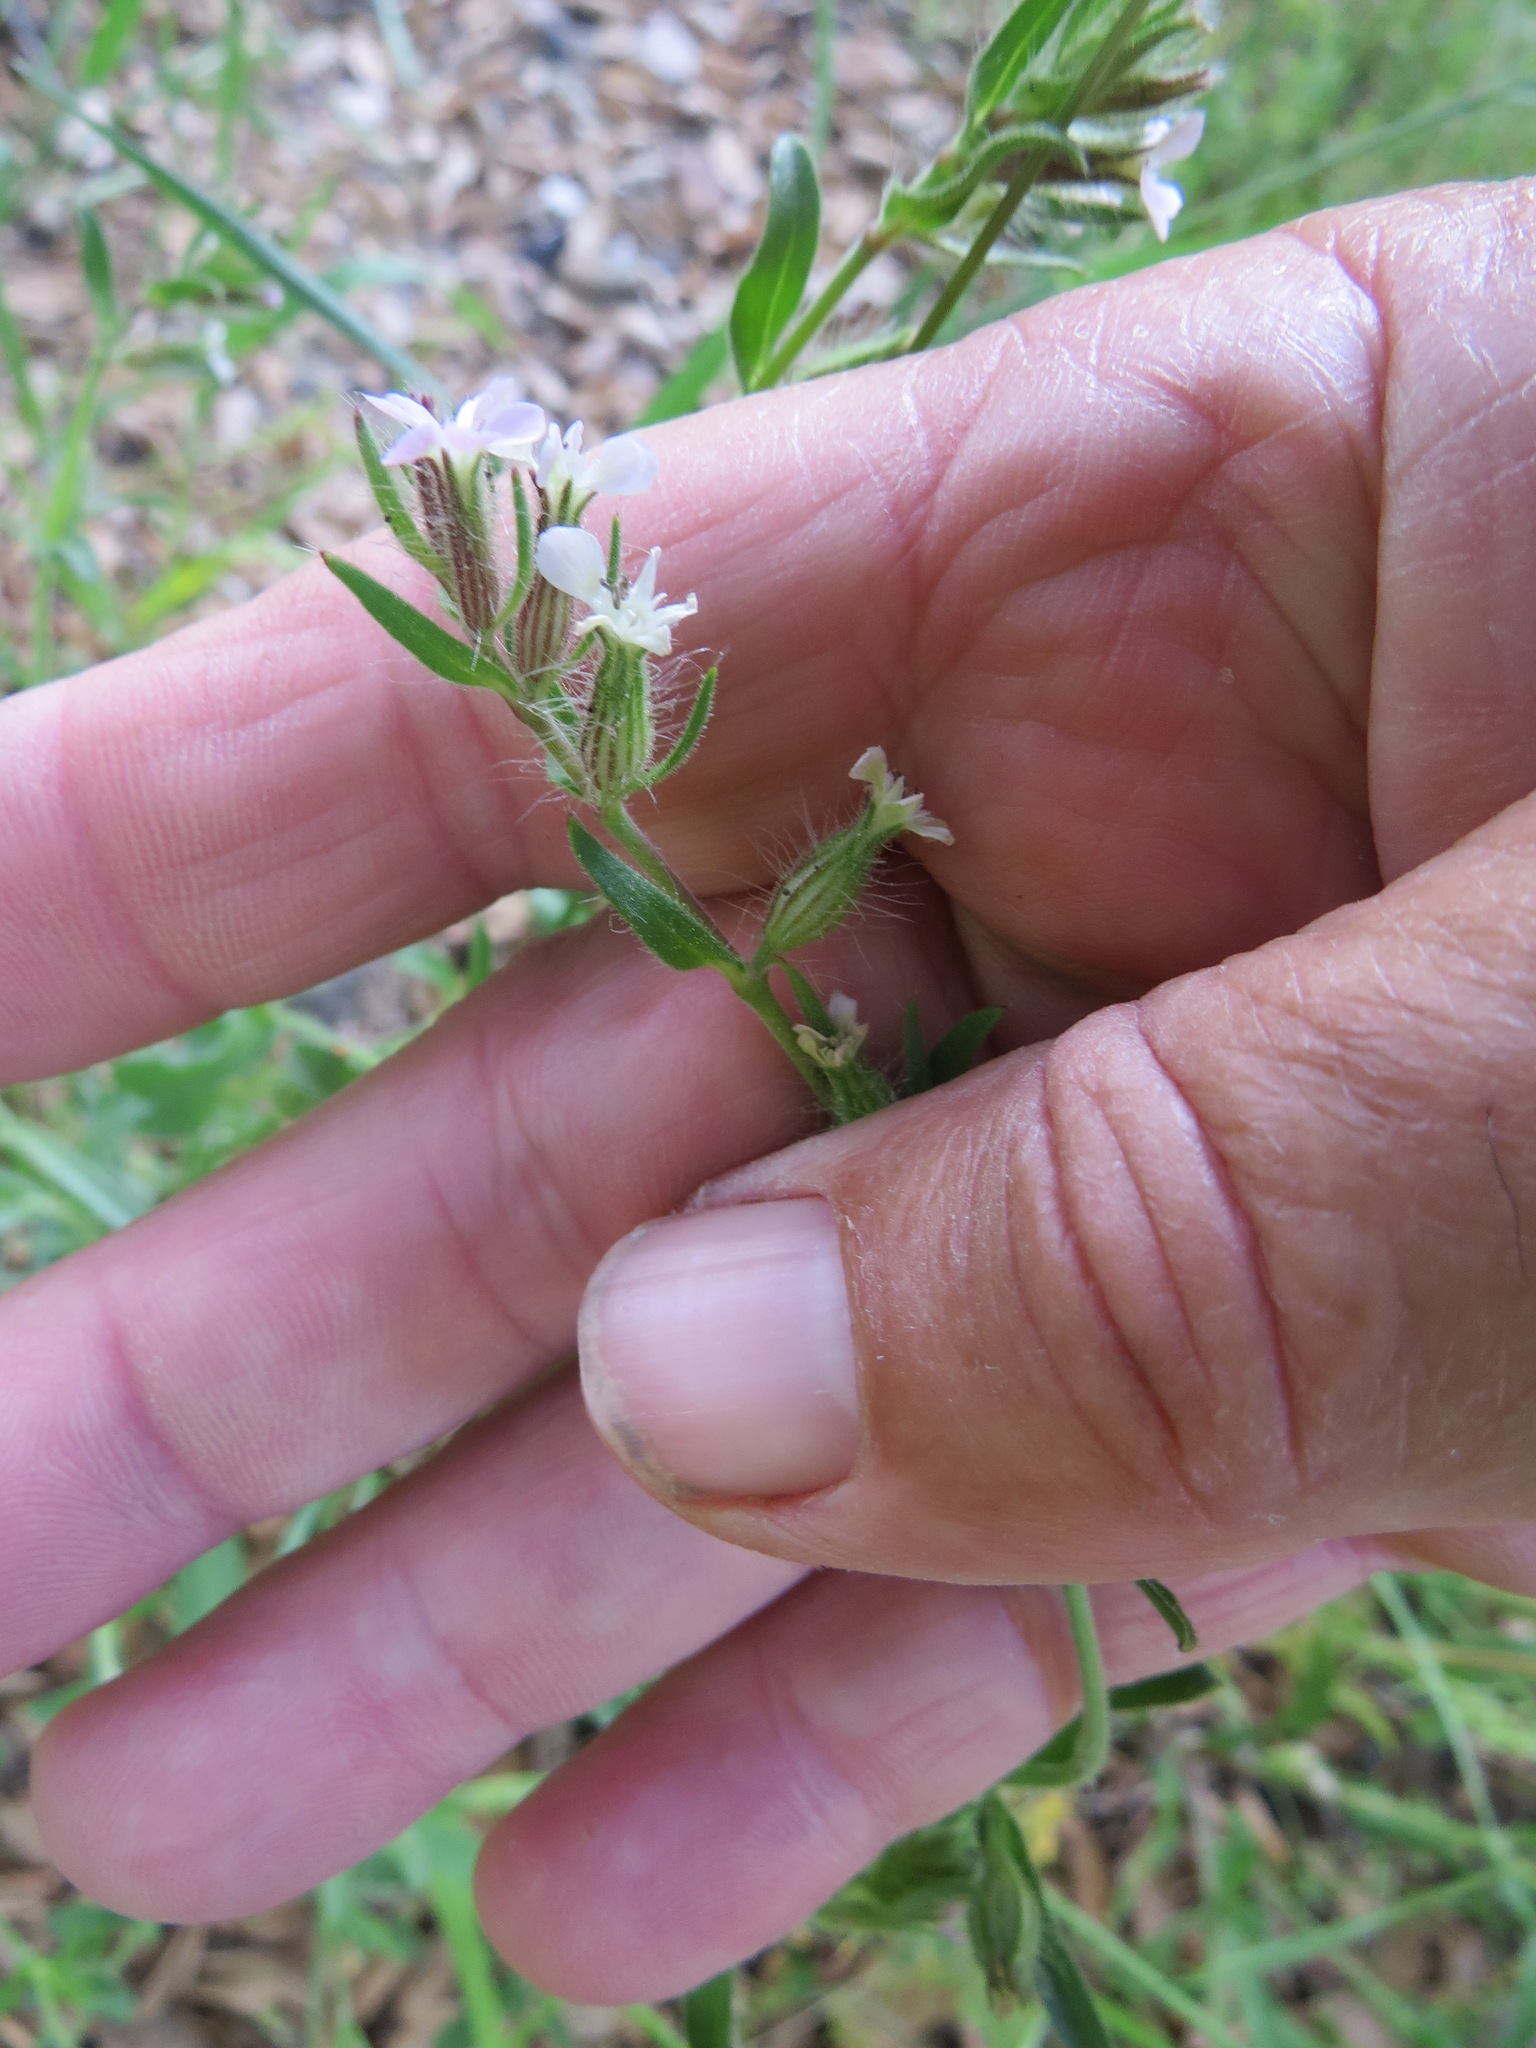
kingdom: Plantae
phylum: Tracheophyta
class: Magnoliopsida
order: Caryophyllales
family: Caryophyllaceae
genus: Silene
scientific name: Silene gallica
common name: Small-flowered catchfly
